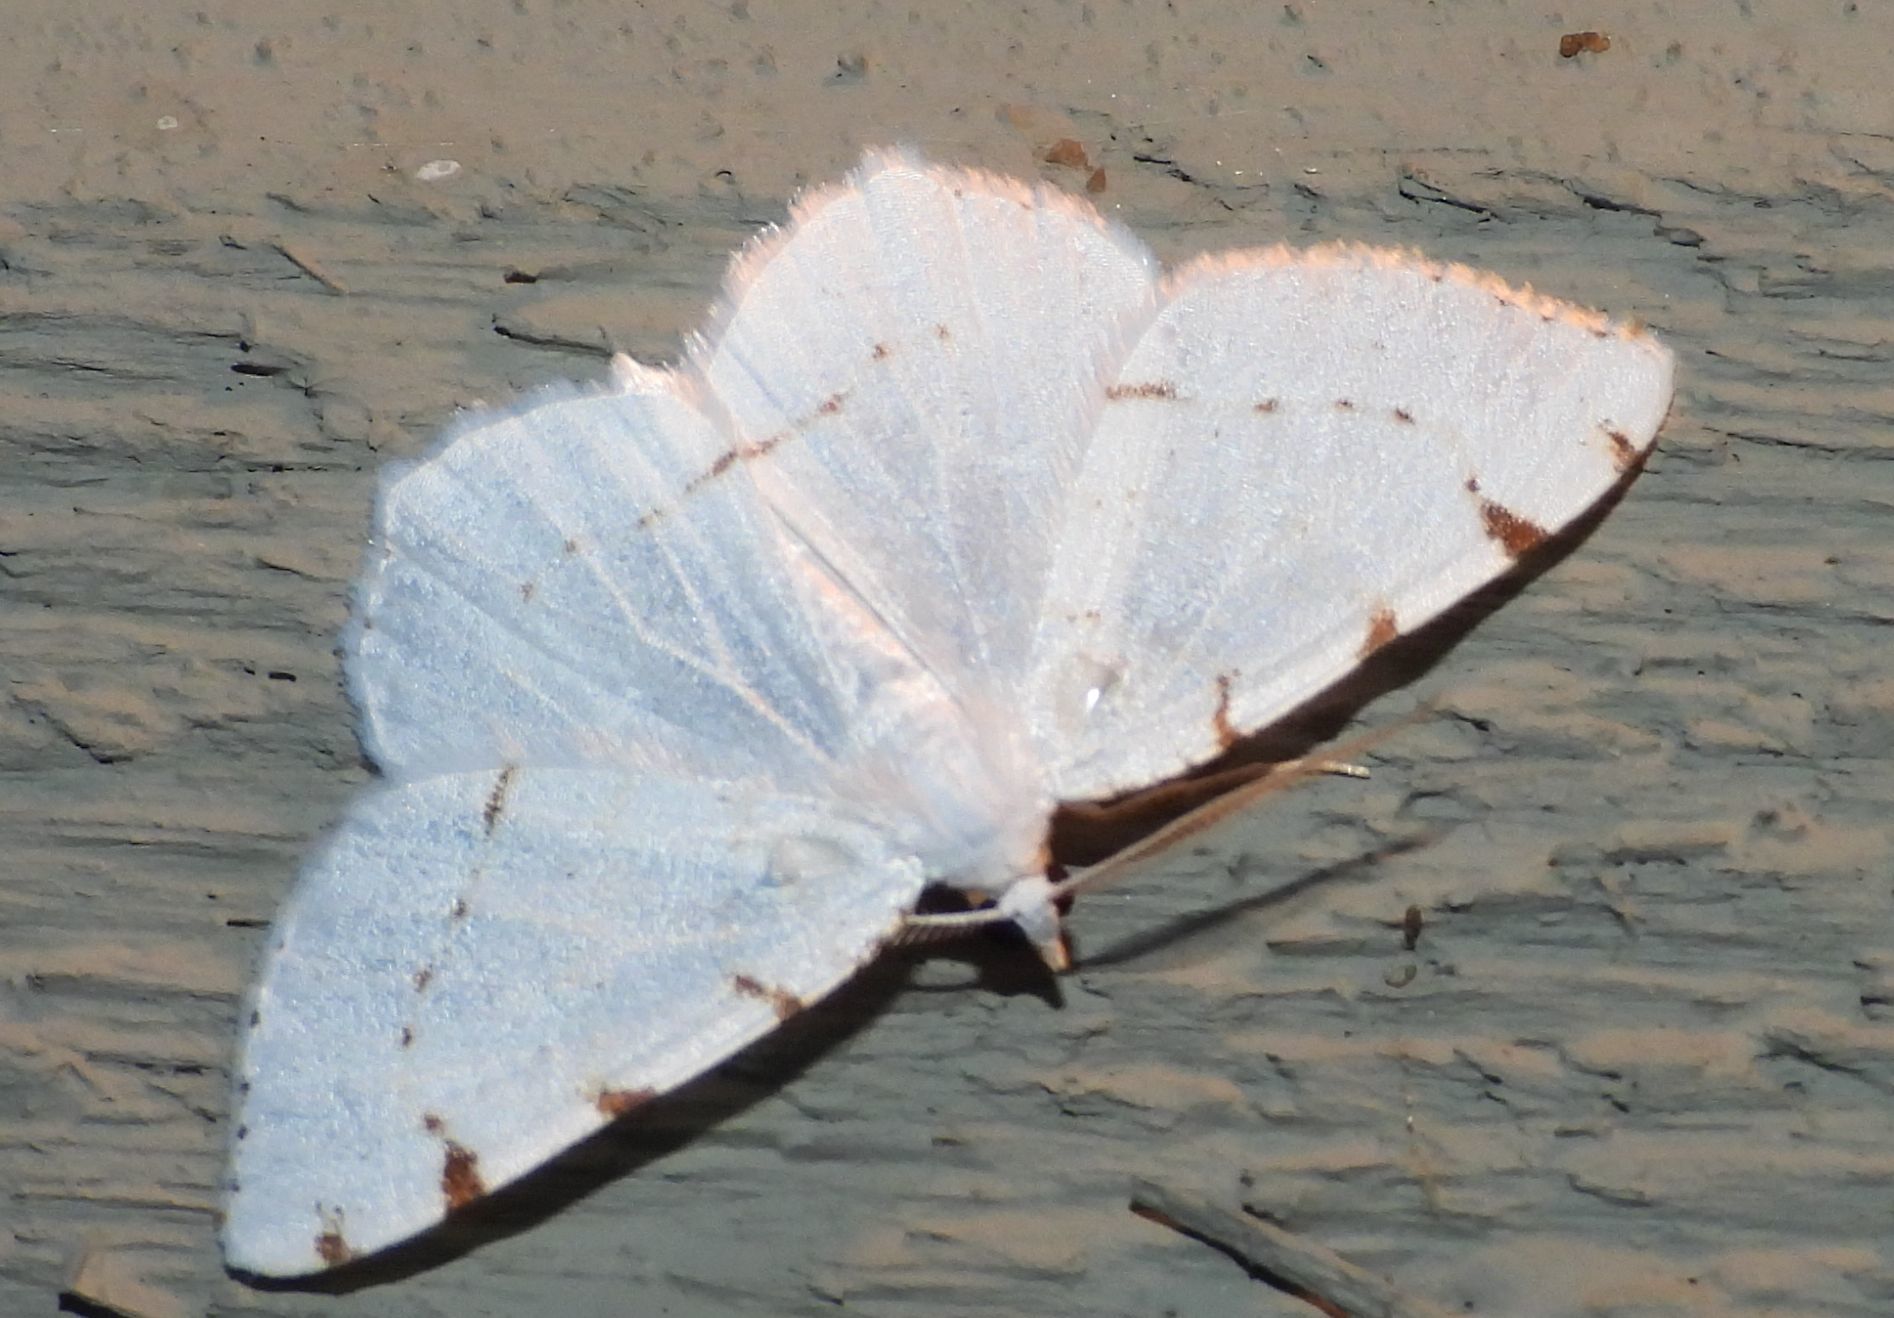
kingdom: Animalia
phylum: Arthropoda
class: Insecta
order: Lepidoptera
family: Geometridae
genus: Macaria
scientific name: Macaria pustularia
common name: Lesser maple spanworm moth
